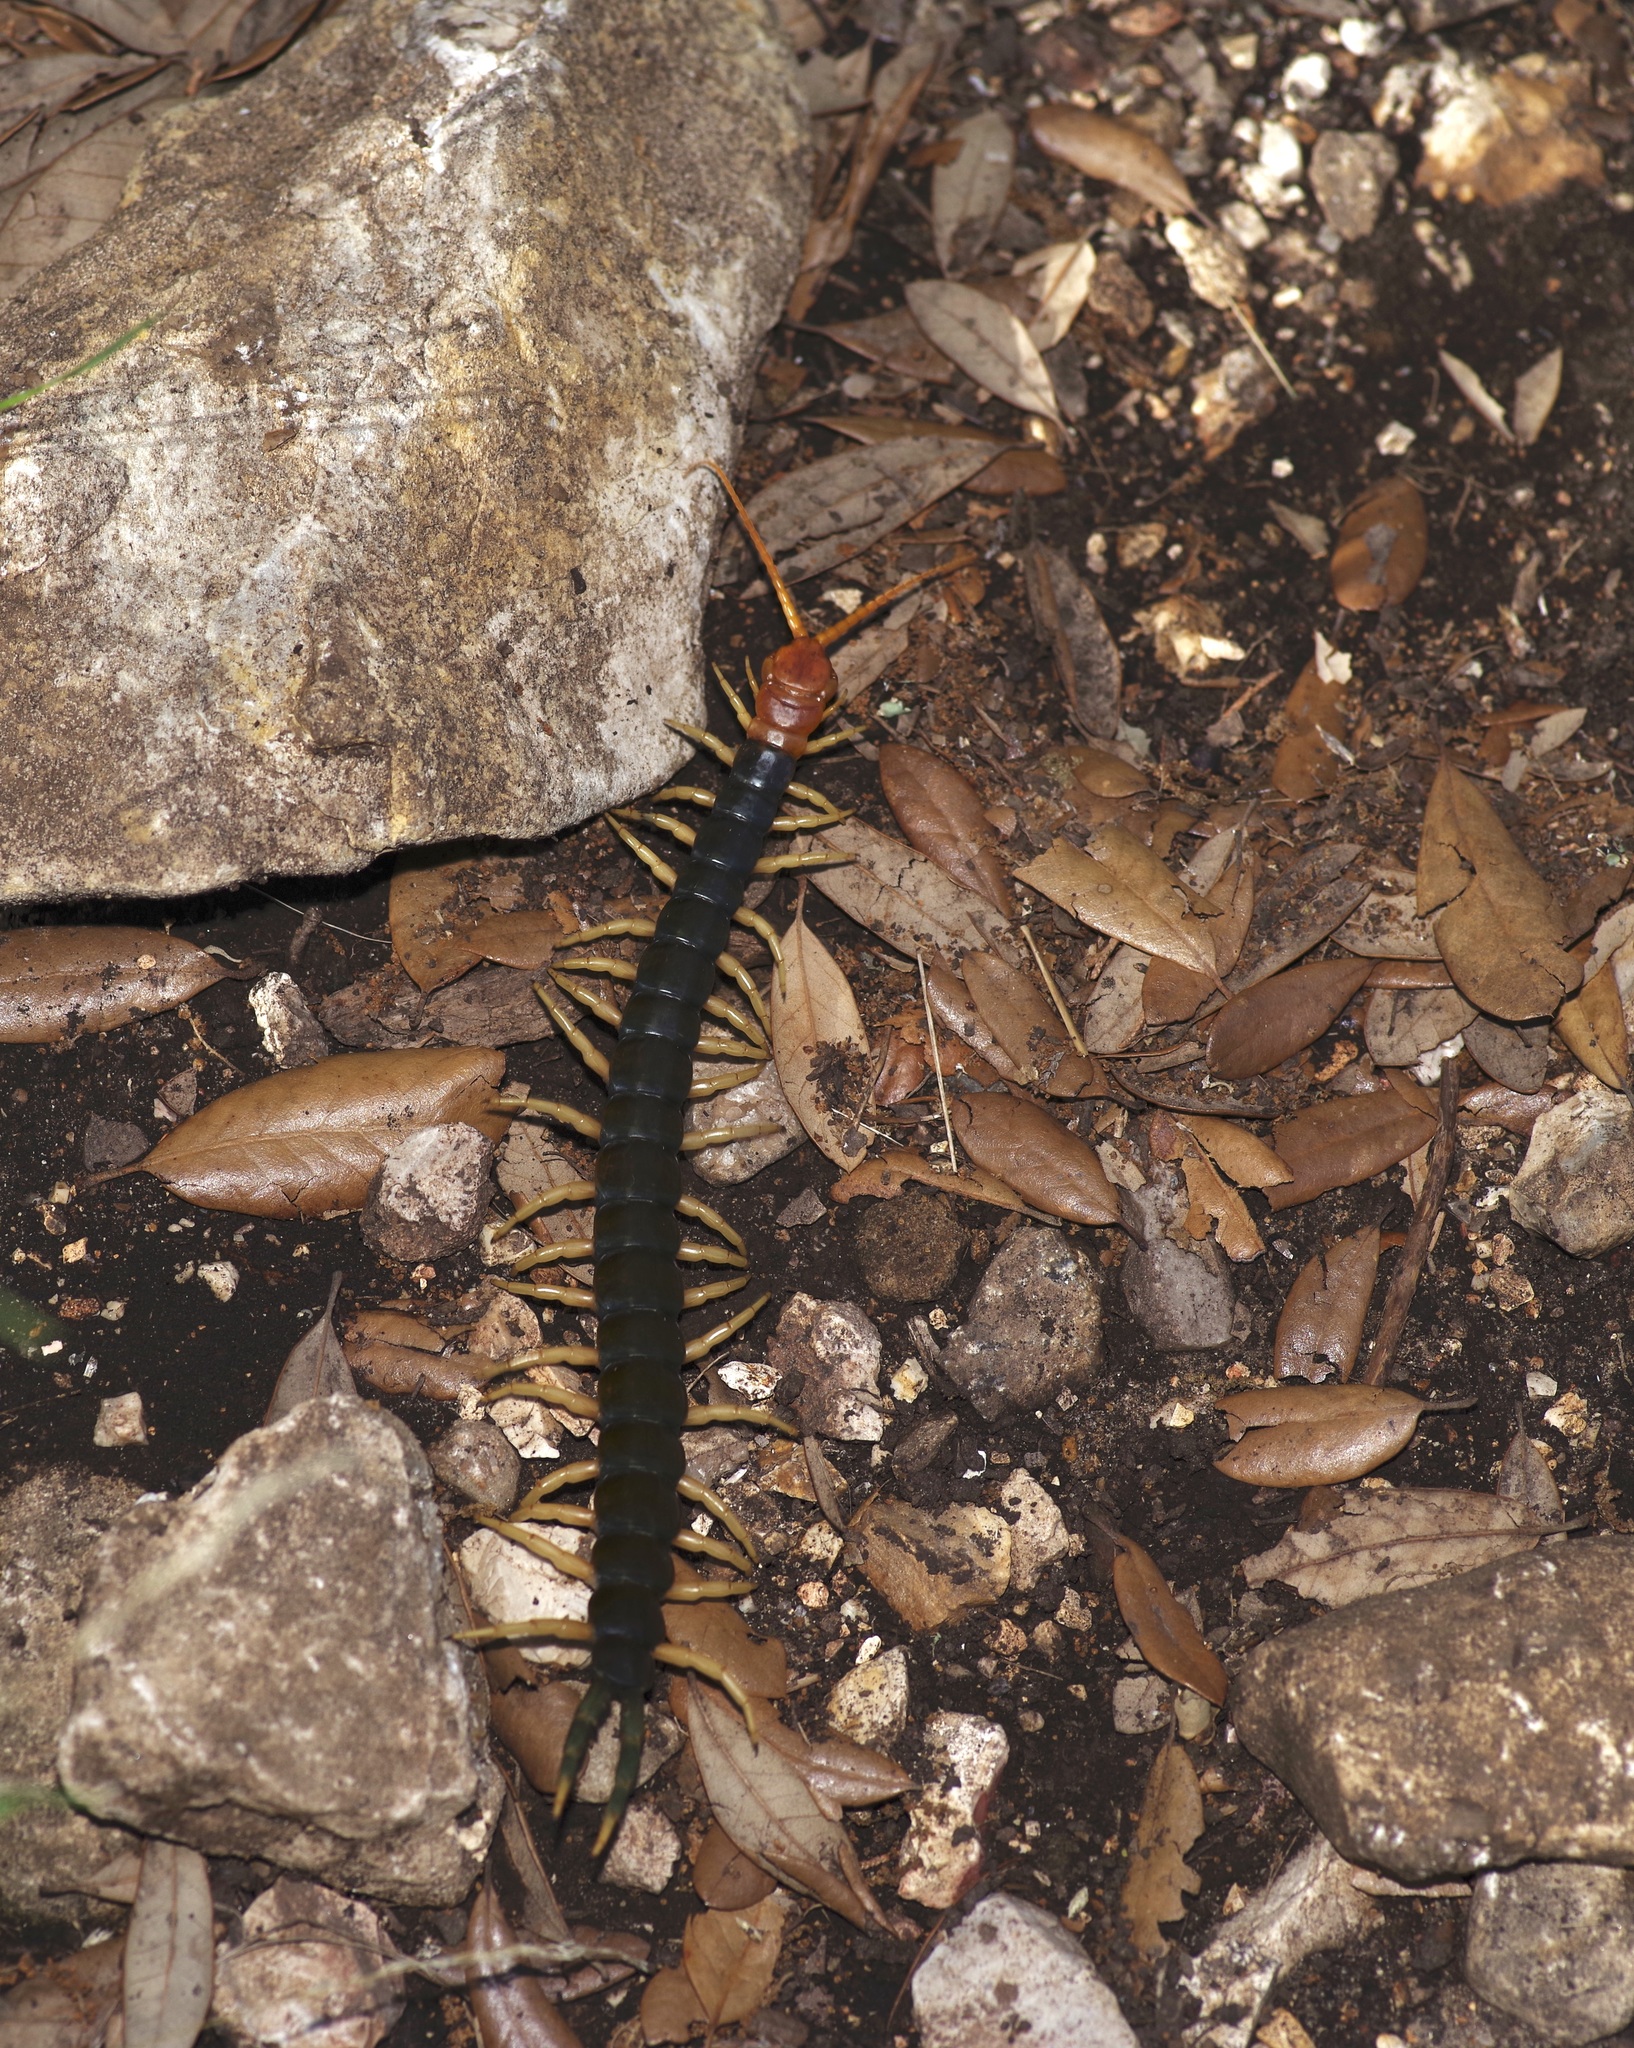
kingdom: Animalia
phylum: Arthropoda
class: Chilopoda
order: Scolopendromorpha
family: Scolopendridae
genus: Scolopendra
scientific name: Scolopendra heros
